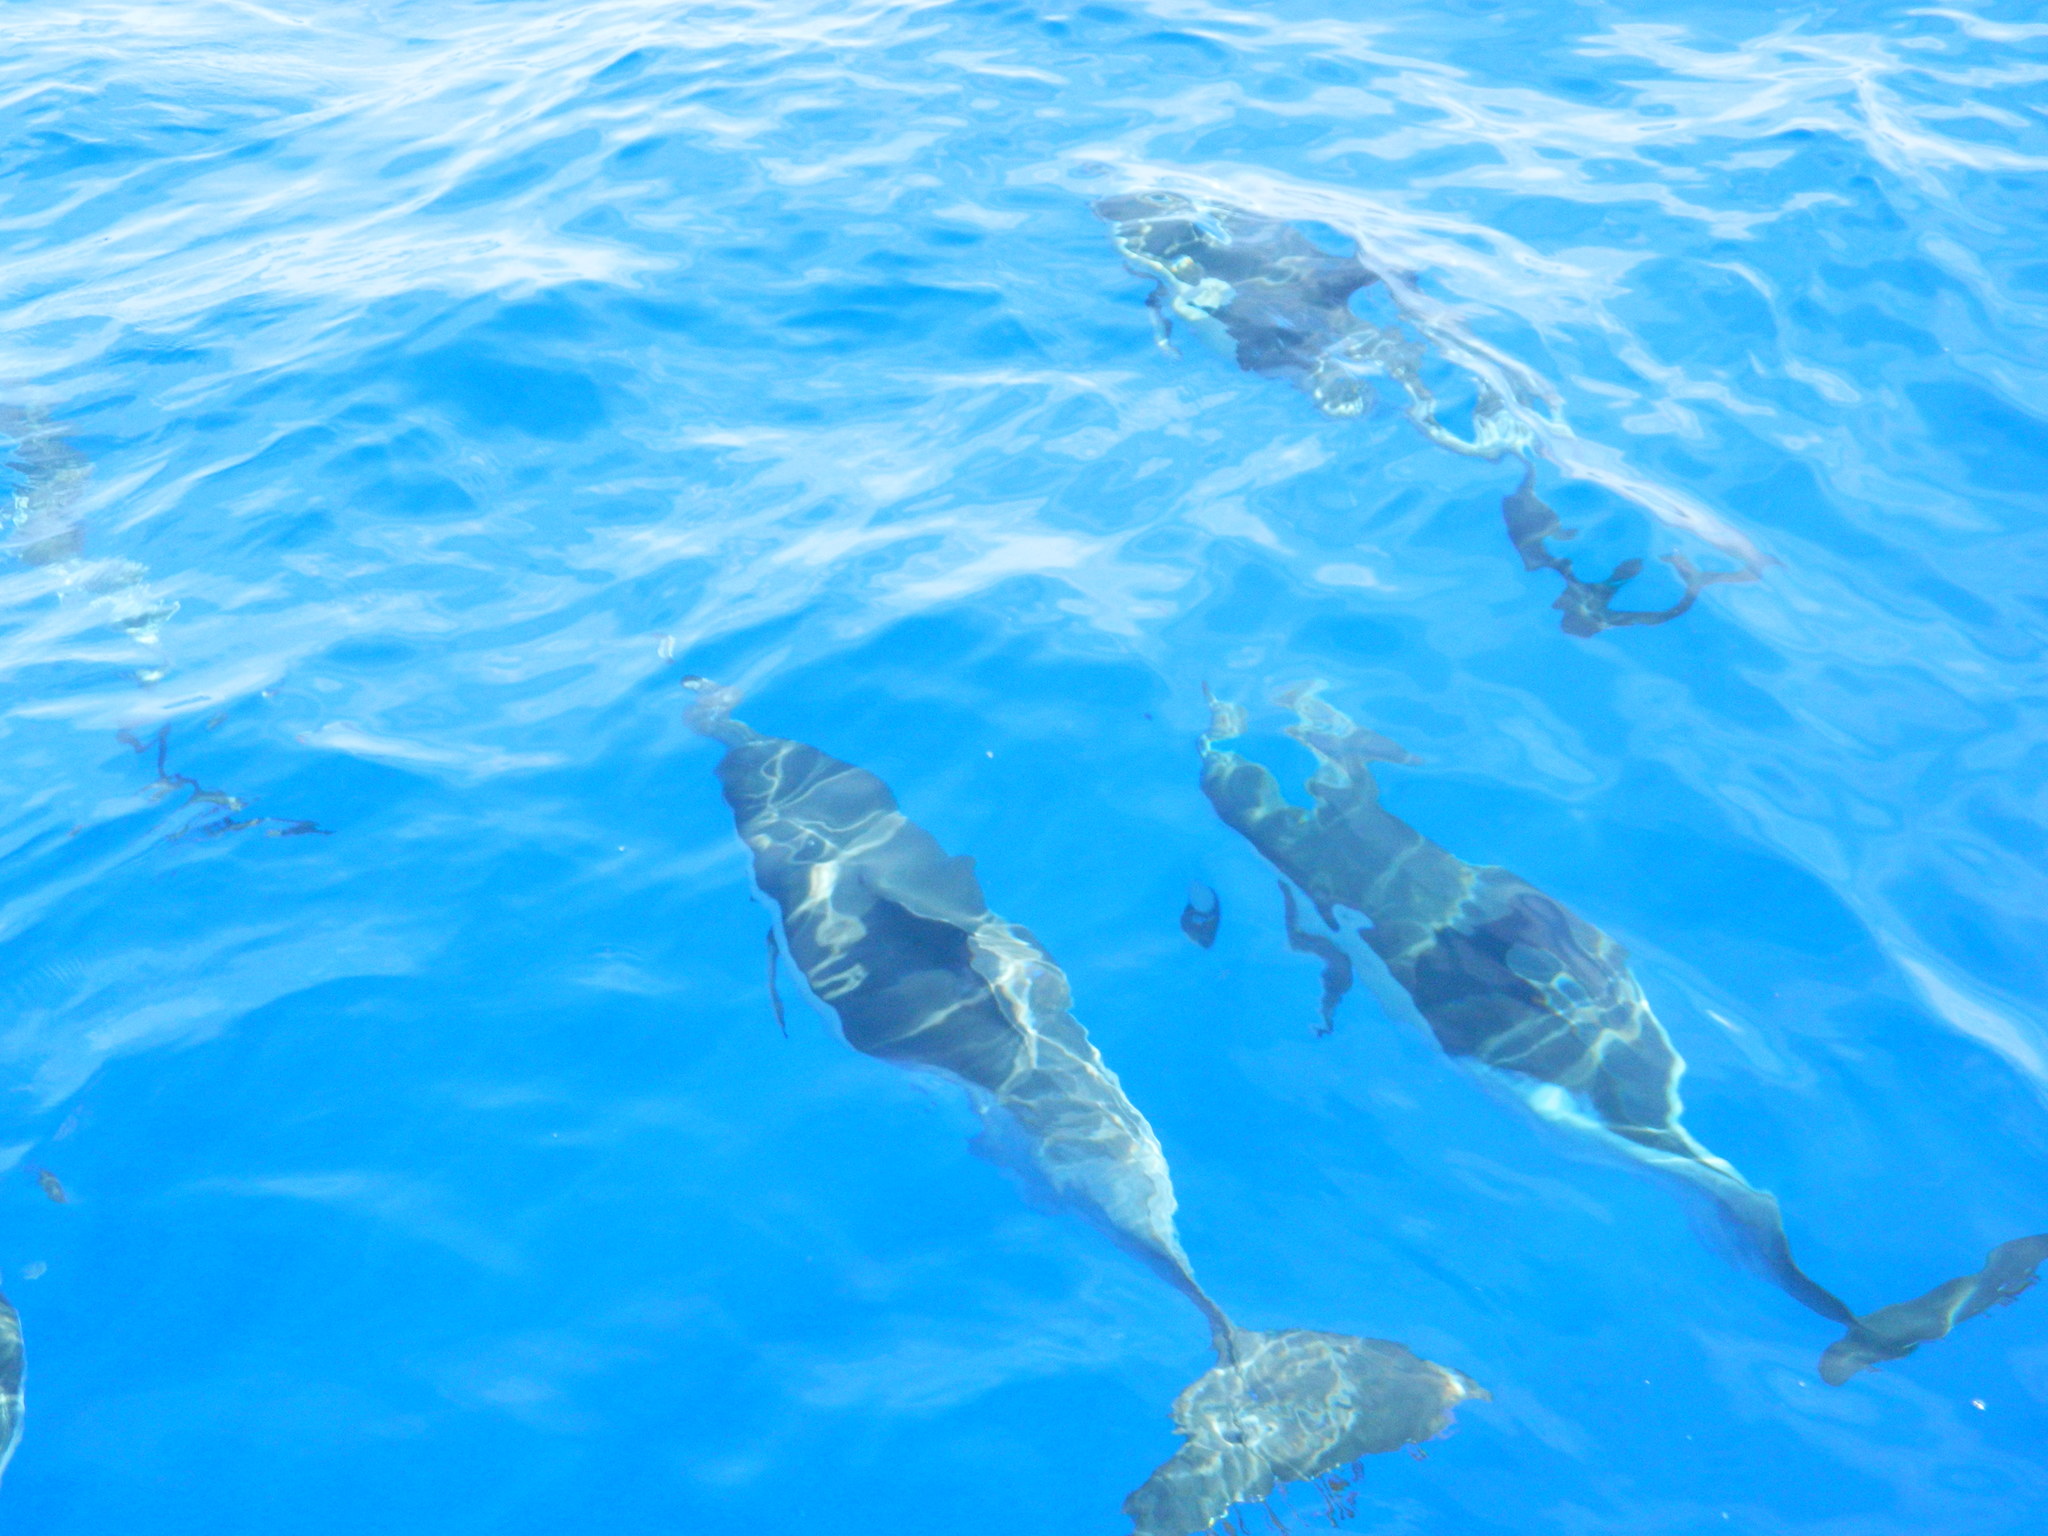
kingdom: Animalia
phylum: Chordata
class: Mammalia
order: Cetacea
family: Delphinidae
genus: Delphinus
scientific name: Delphinus delphis
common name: Common dolphin
